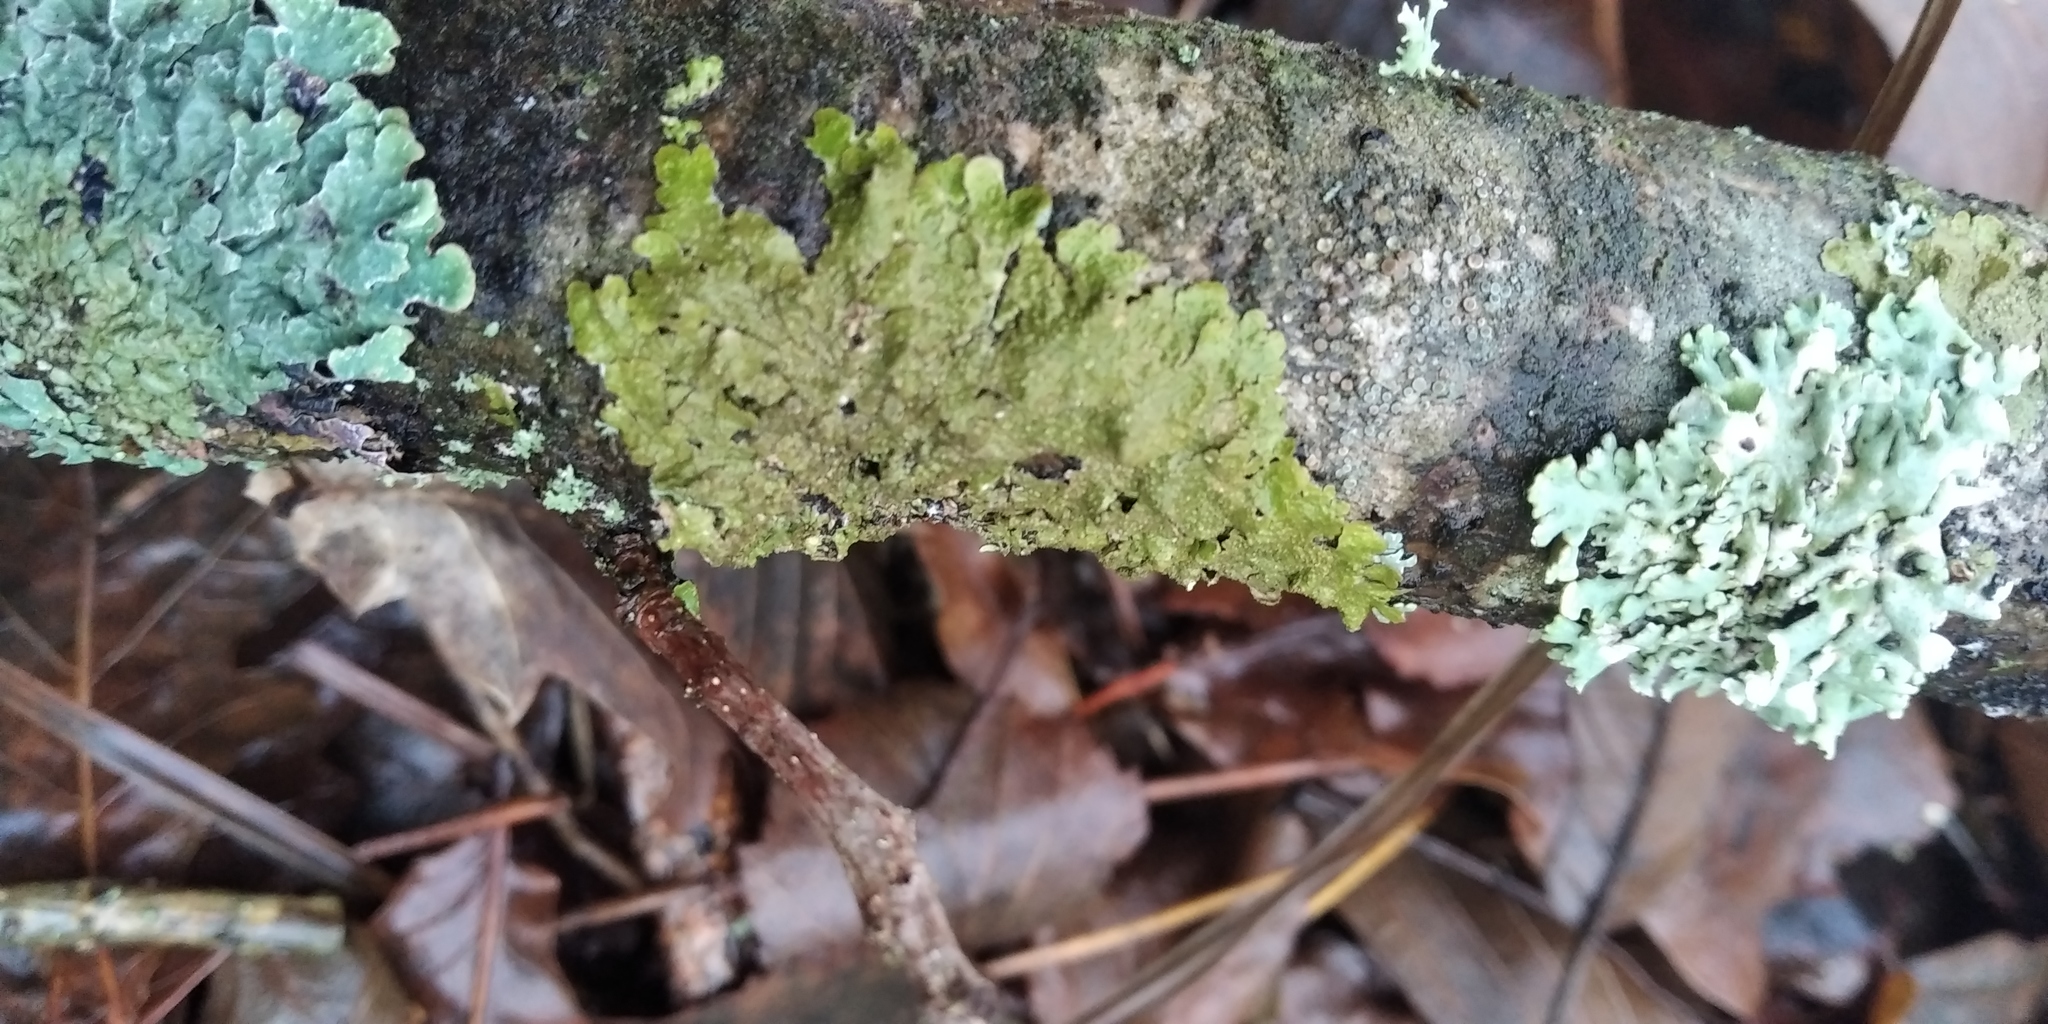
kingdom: Fungi
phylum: Ascomycota
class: Lecanoromycetes
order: Lecanorales
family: Parmeliaceae
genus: Melanelixia
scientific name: Melanelixia subaurifera
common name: Abraded camouflage lichen
